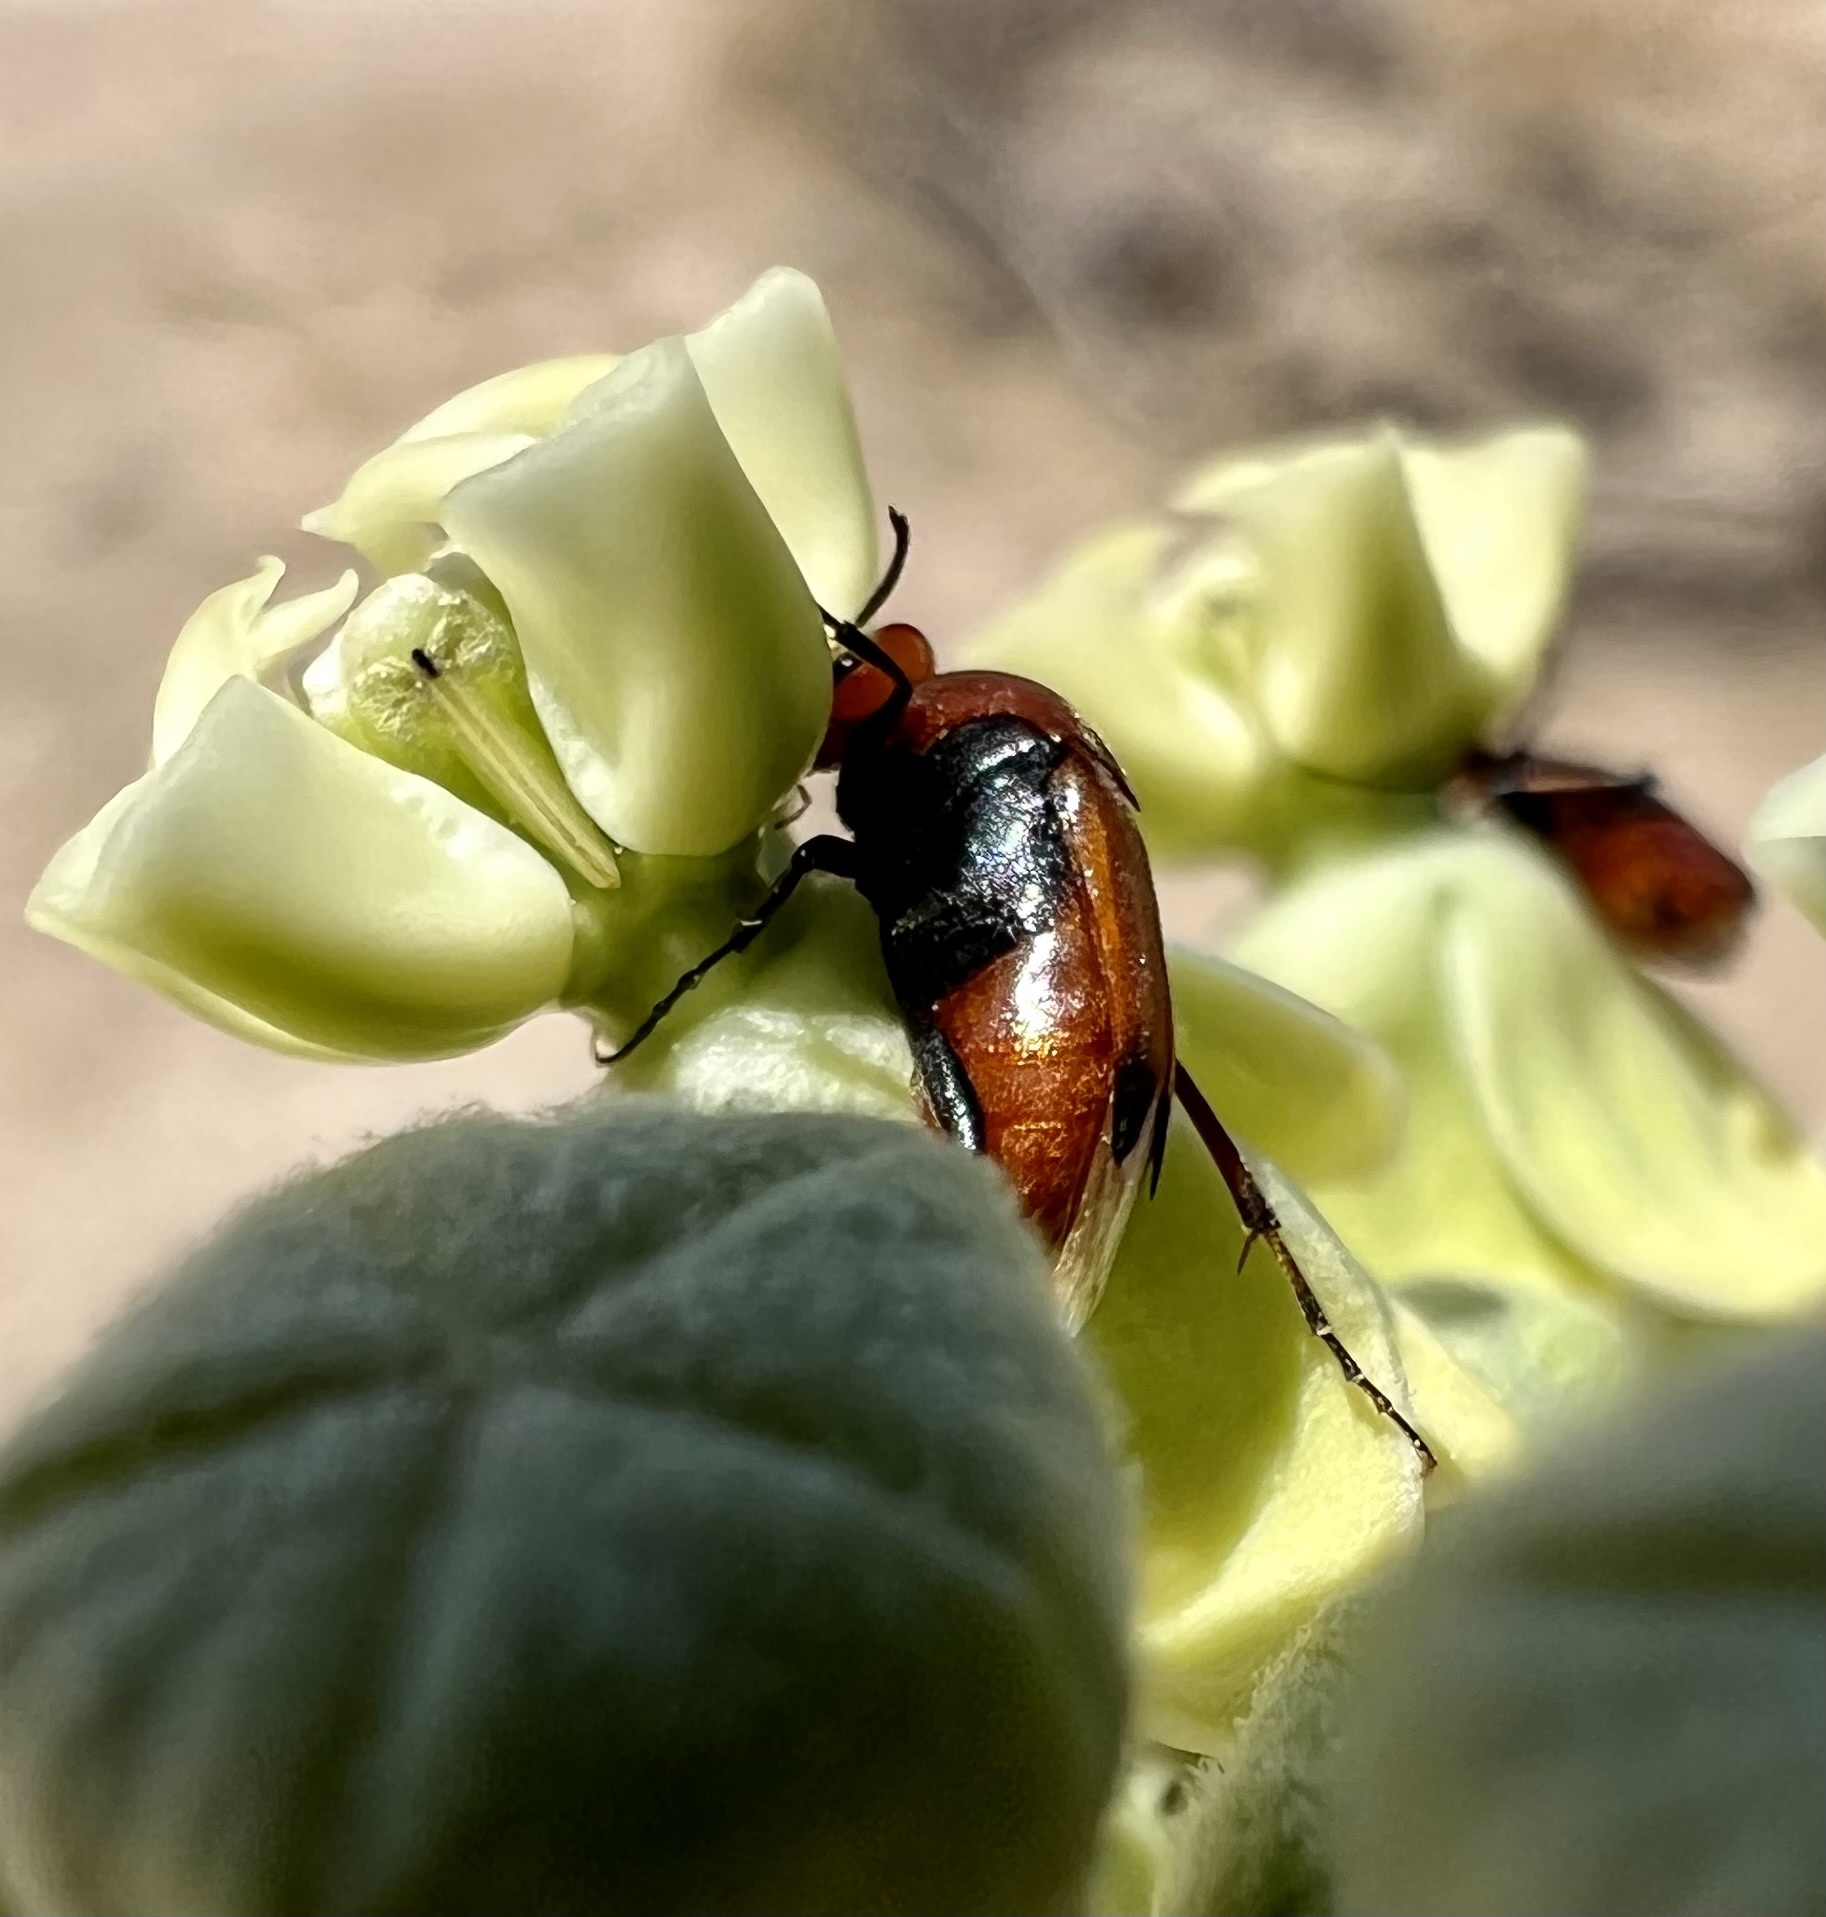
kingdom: Animalia
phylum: Arthropoda
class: Insecta
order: Coleoptera
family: Ripiphoridae
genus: Macrosiagon
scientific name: Macrosiagon cruentum
